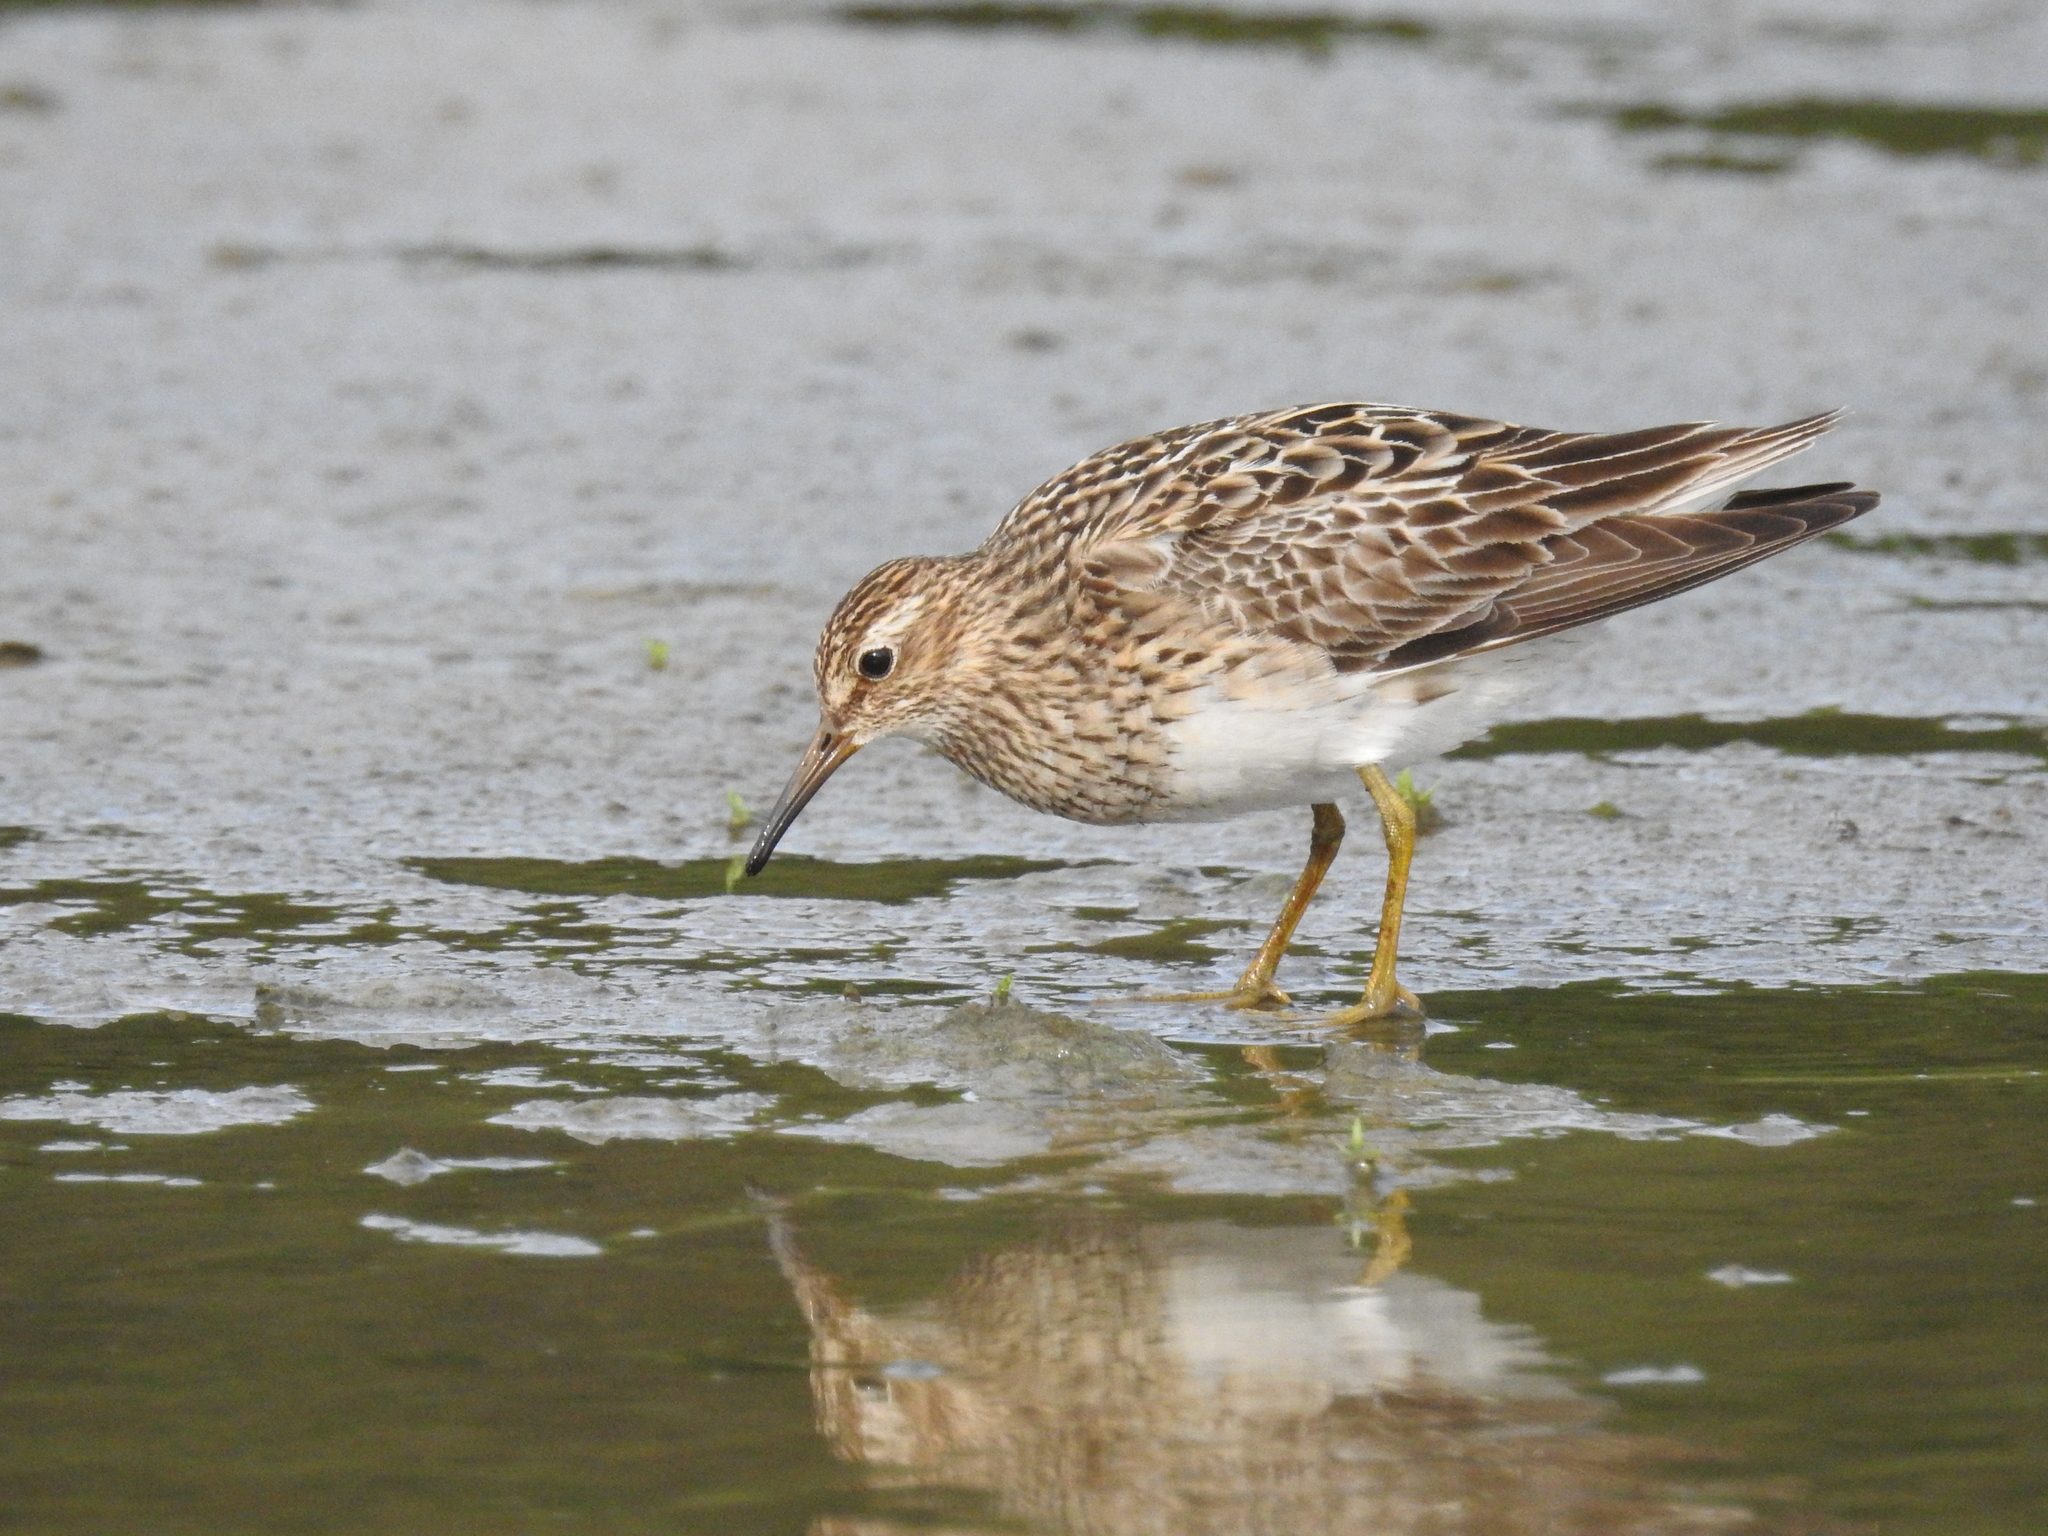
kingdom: Animalia
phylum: Chordata
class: Aves
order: Charadriiformes
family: Scolopacidae
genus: Calidris
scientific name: Calidris melanotos
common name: Pectoral sandpiper
